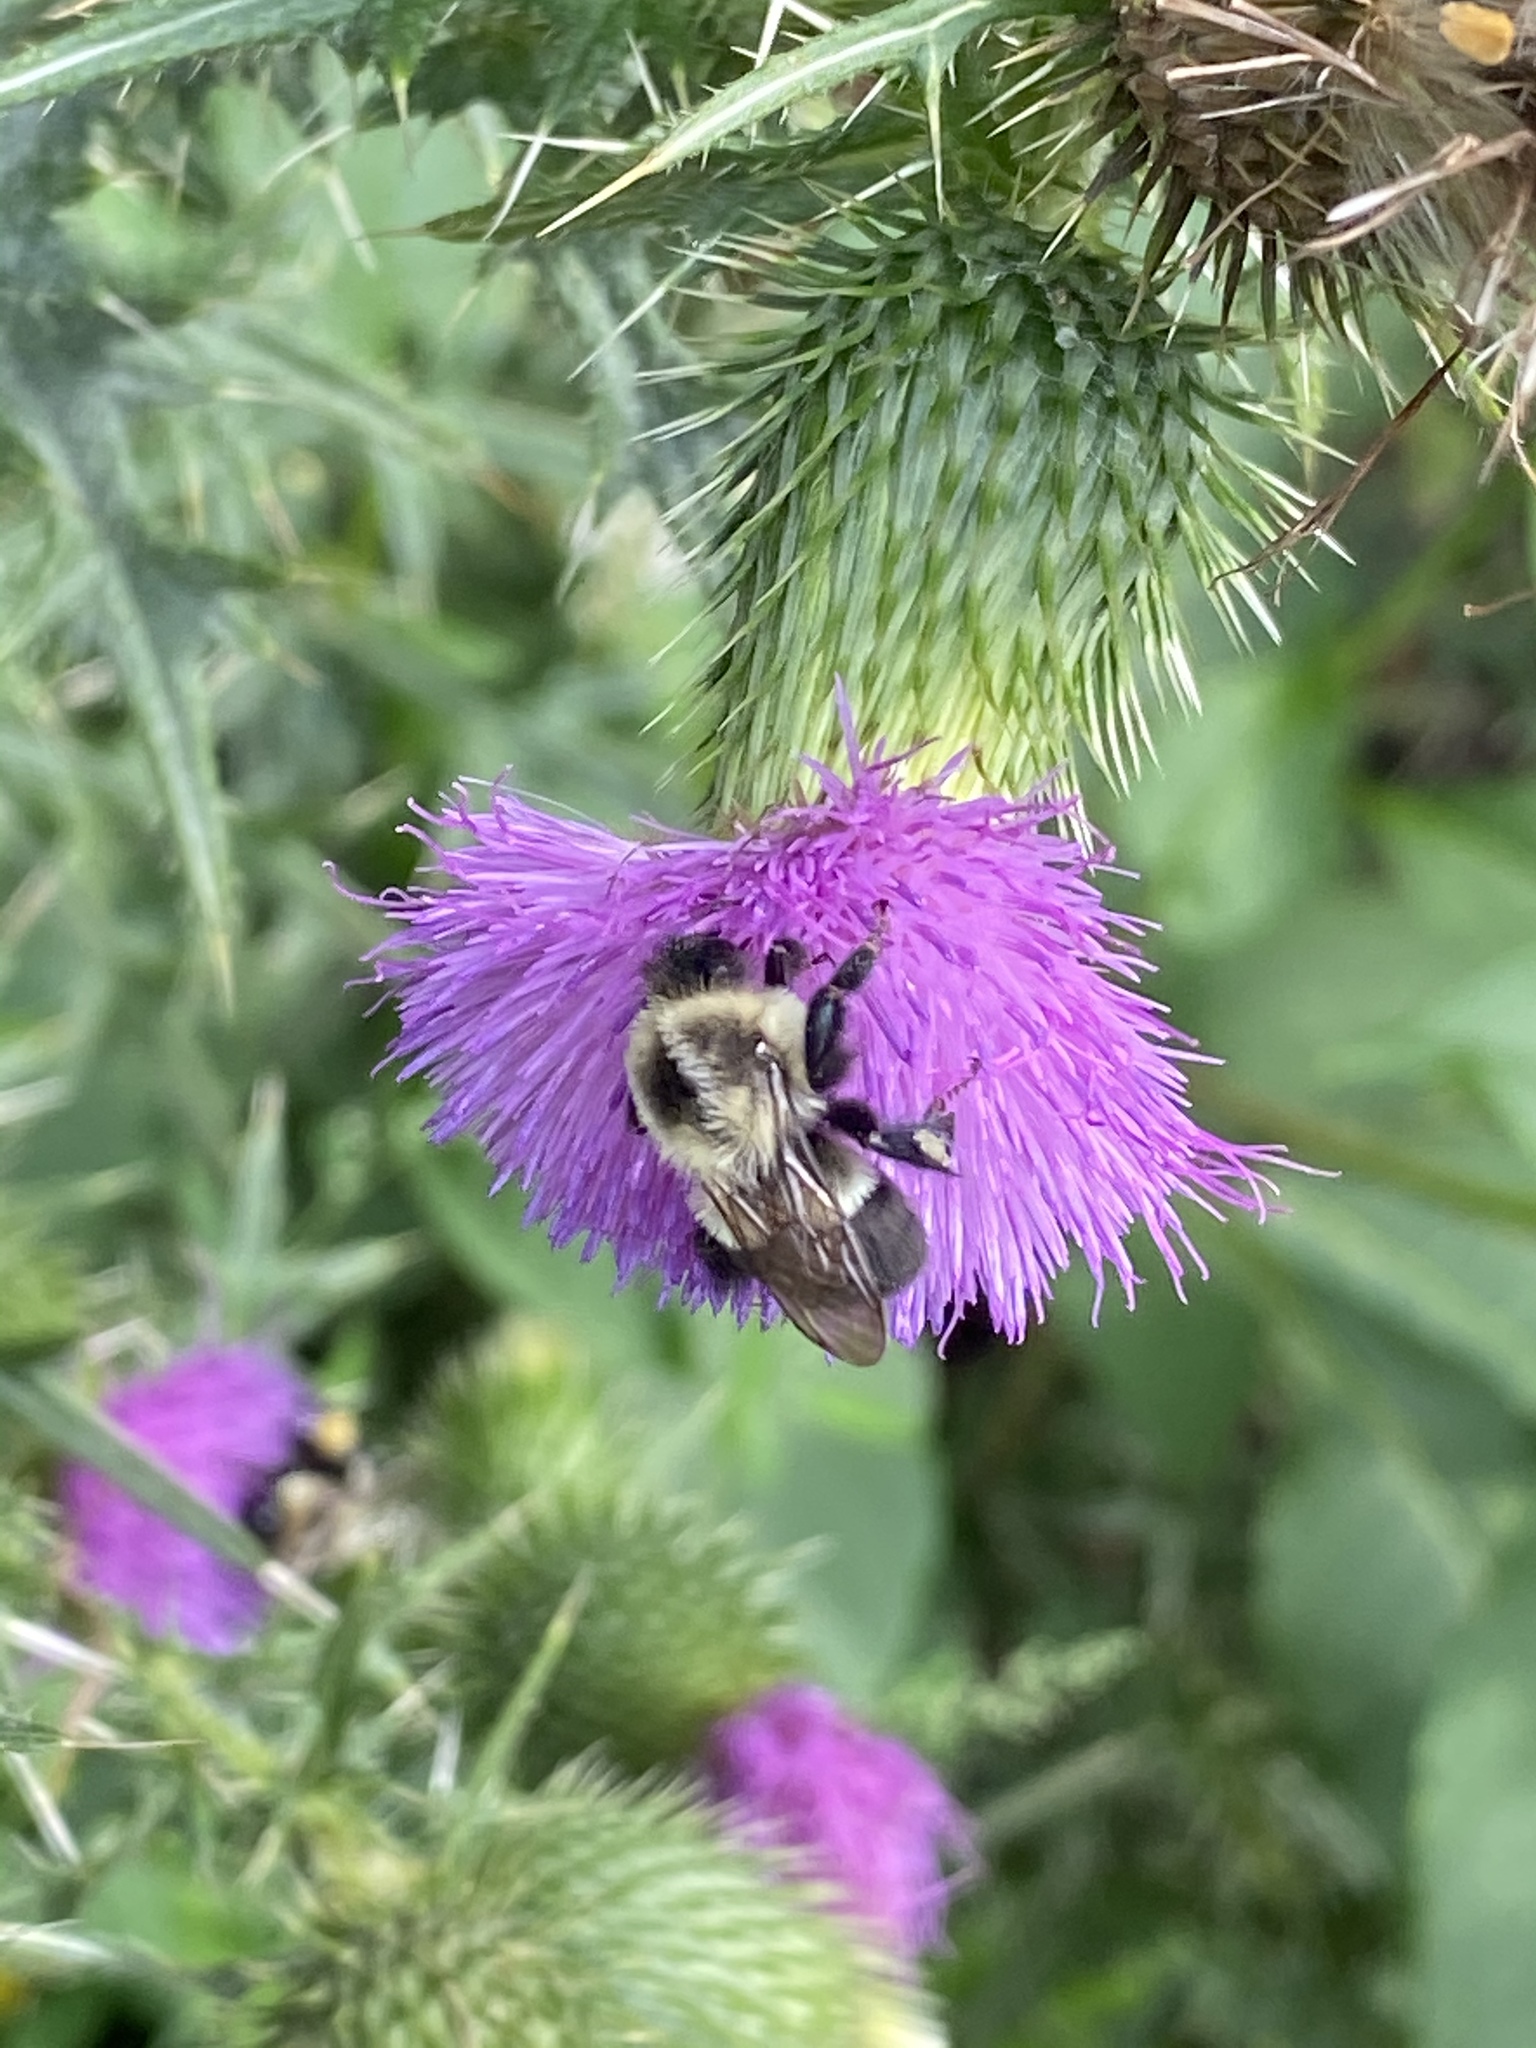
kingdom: Animalia
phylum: Arthropoda
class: Insecta
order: Hymenoptera
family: Apidae
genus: Bombus
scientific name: Bombus impatiens
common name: Common eastern bumble bee
